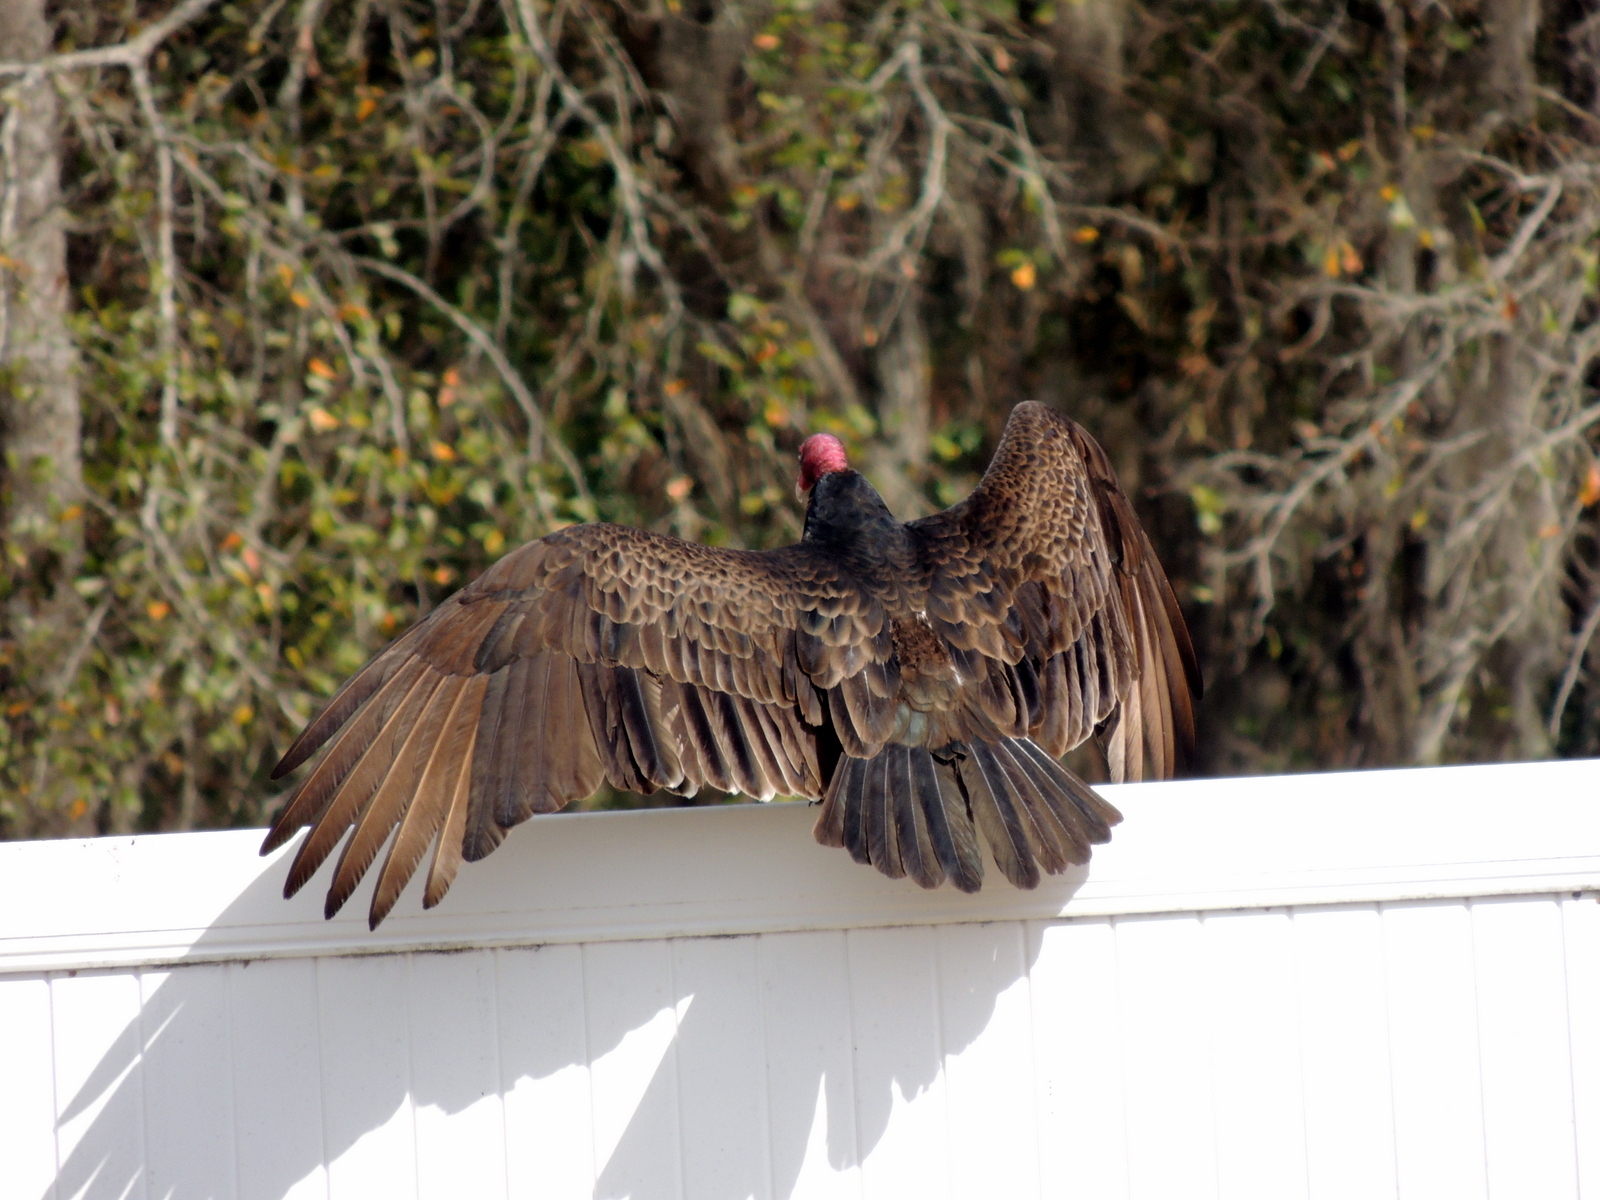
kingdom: Animalia
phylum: Chordata
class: Aves
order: Accipitriformes
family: Cathartidae
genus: Cathartes
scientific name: Cathartes aura
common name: Turkey vulture
